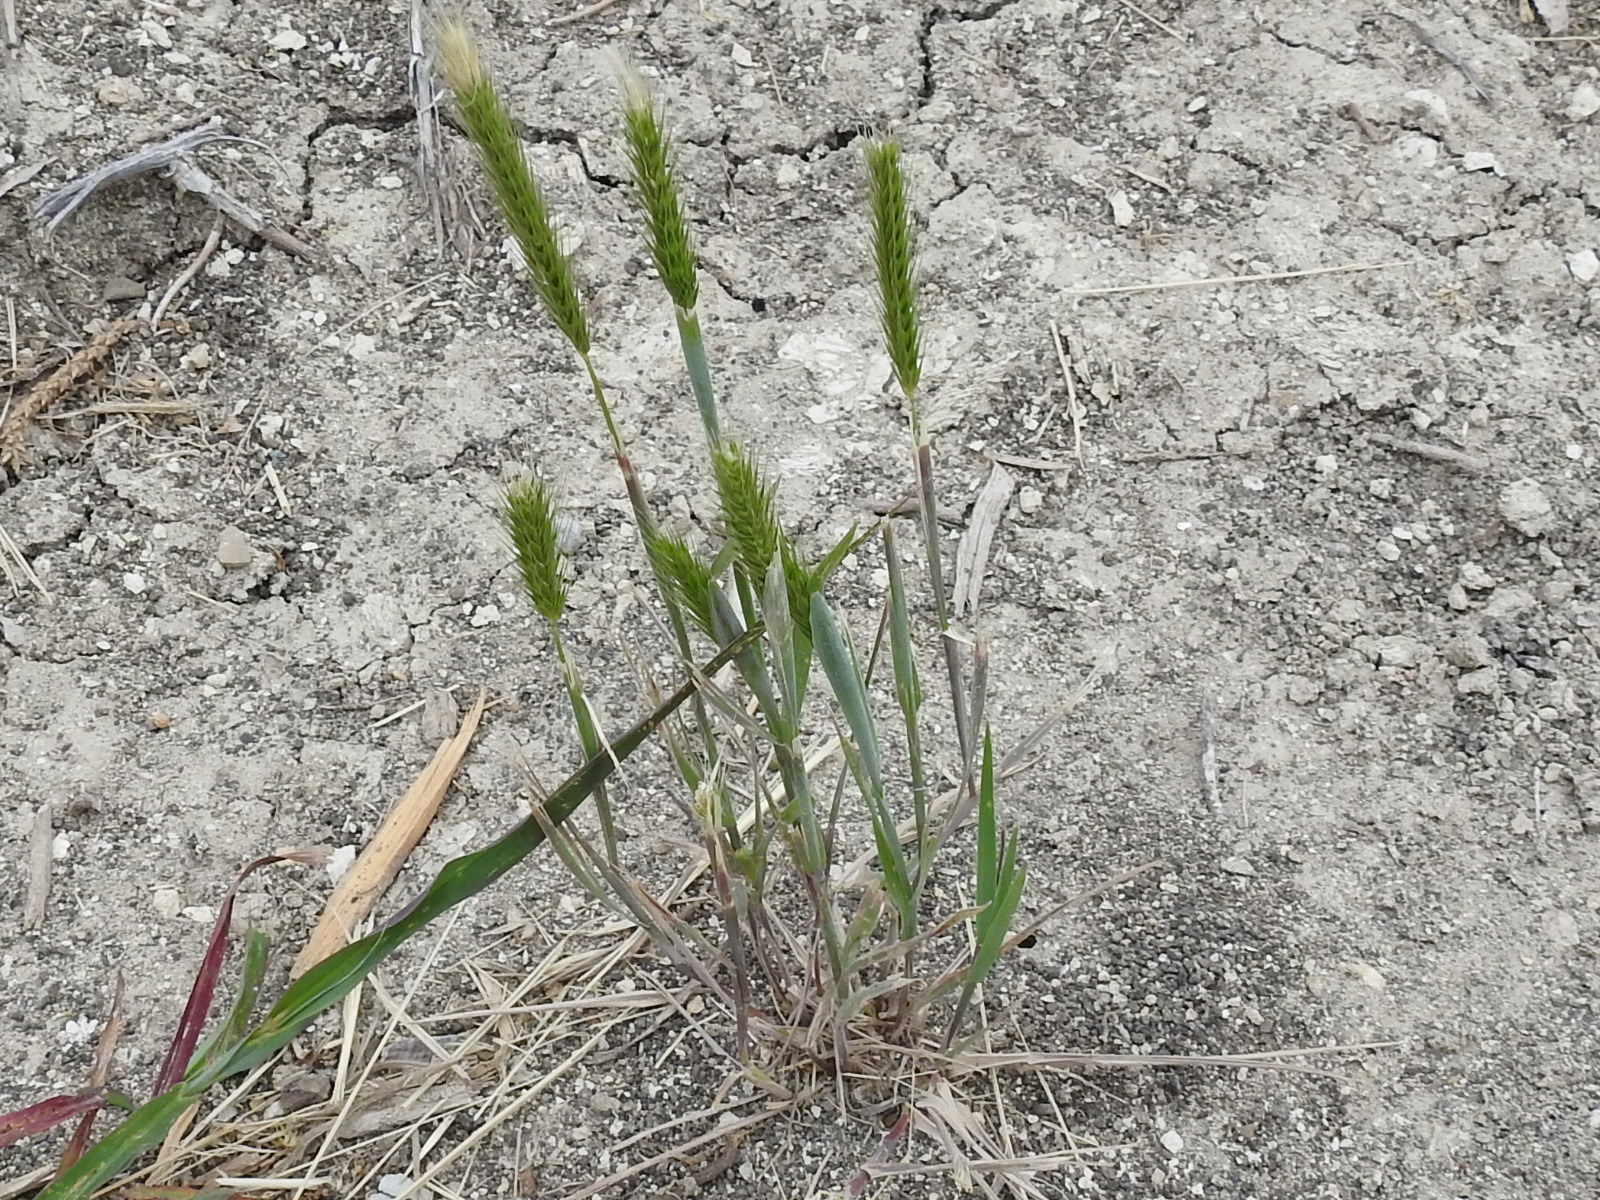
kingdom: Plantae
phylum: Tracheophyta
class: Liliopsida
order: Poales
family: Poaceae
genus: Hordeum
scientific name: Hordeum pusillum
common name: Little barley
